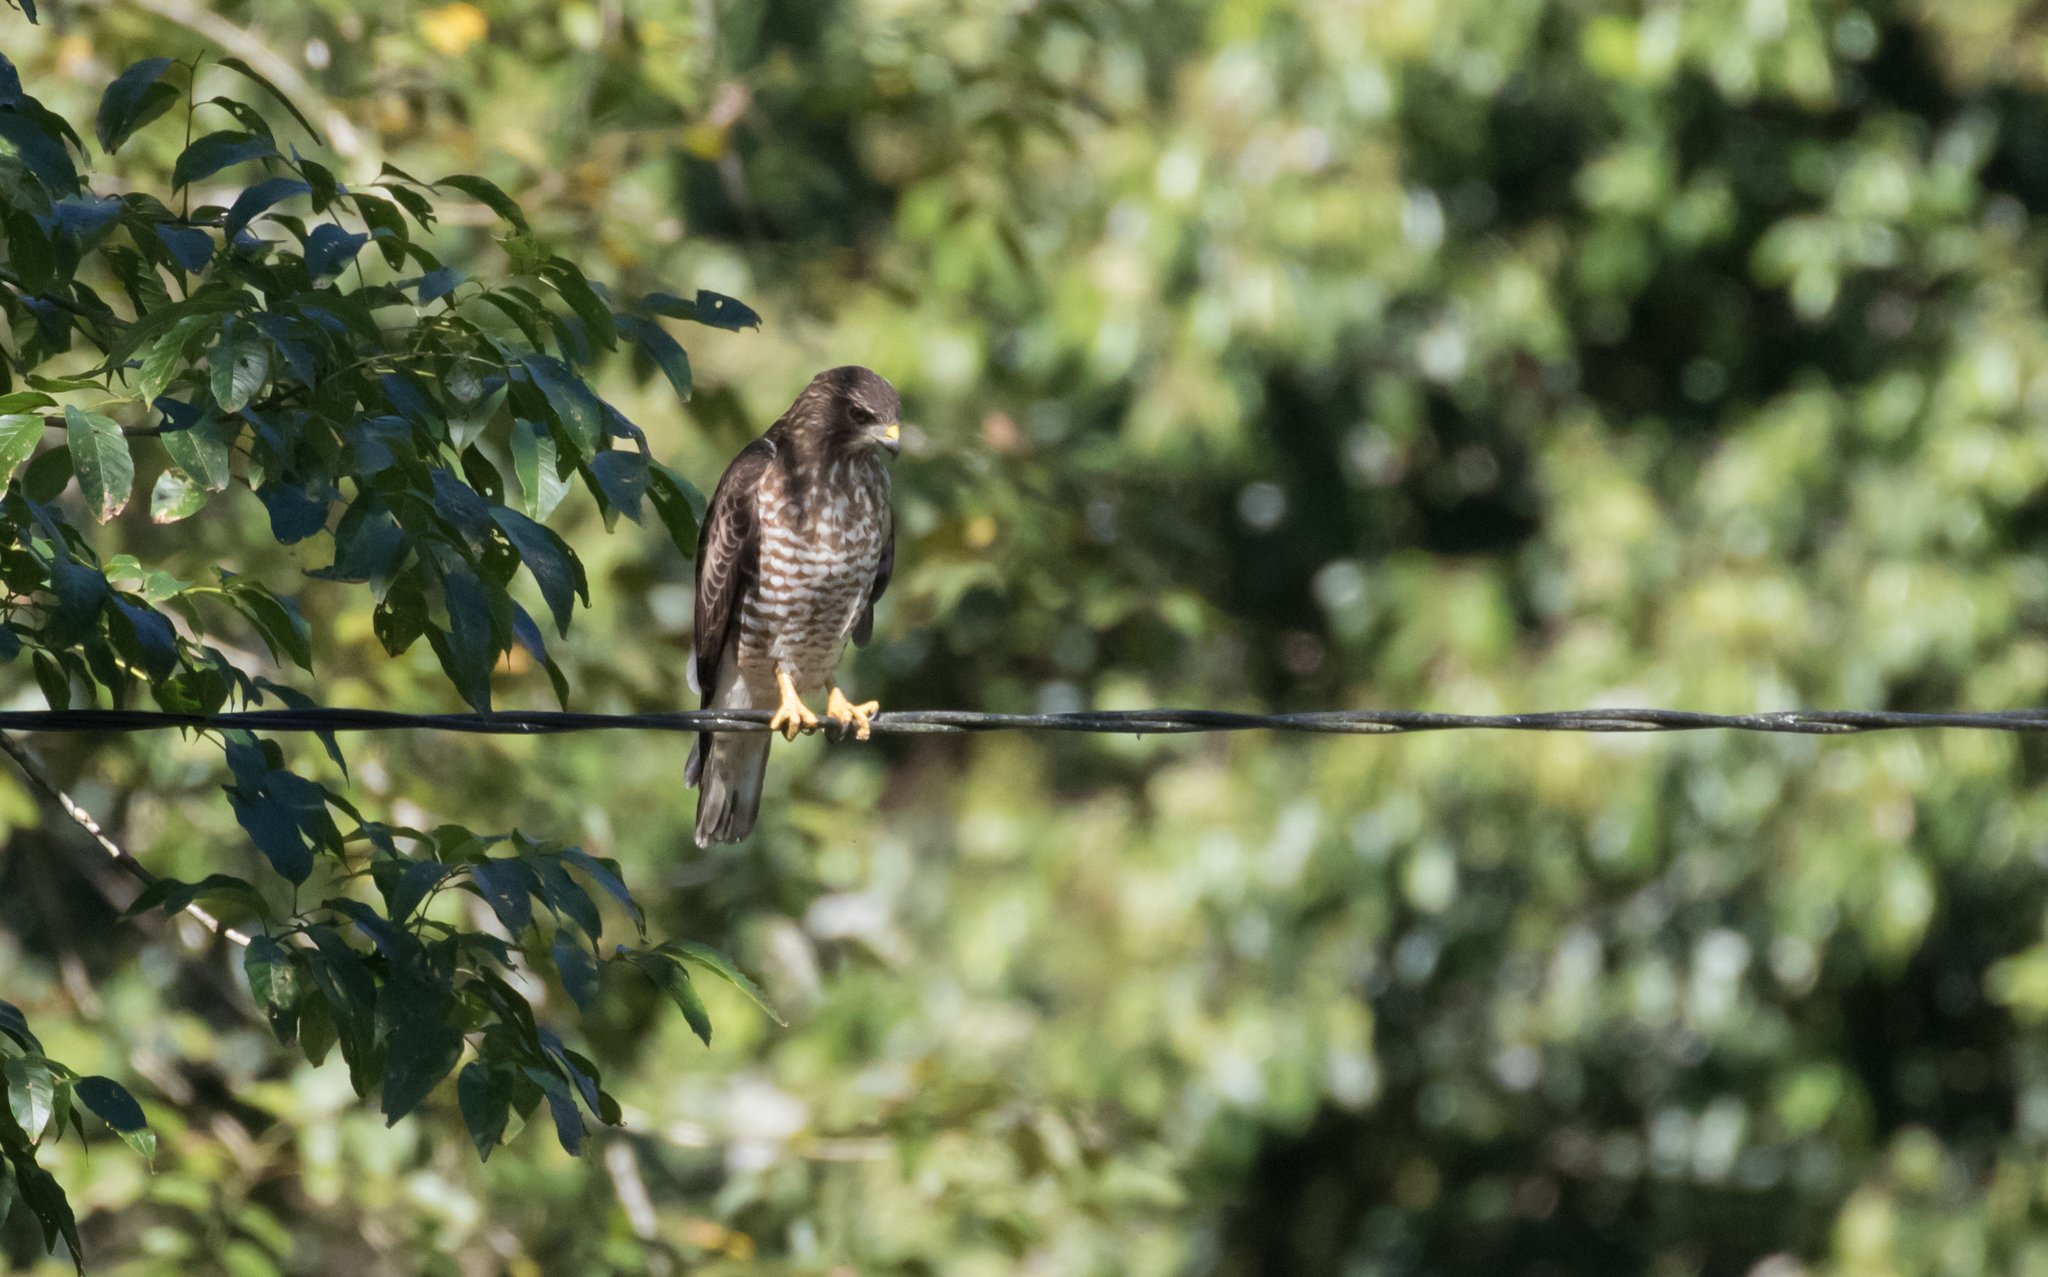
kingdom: Animalia
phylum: Chordata
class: Aves
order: Accipitriformes
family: Accipitridae
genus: Buteo
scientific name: Buteo platypterus
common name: Broad-winged hawk
